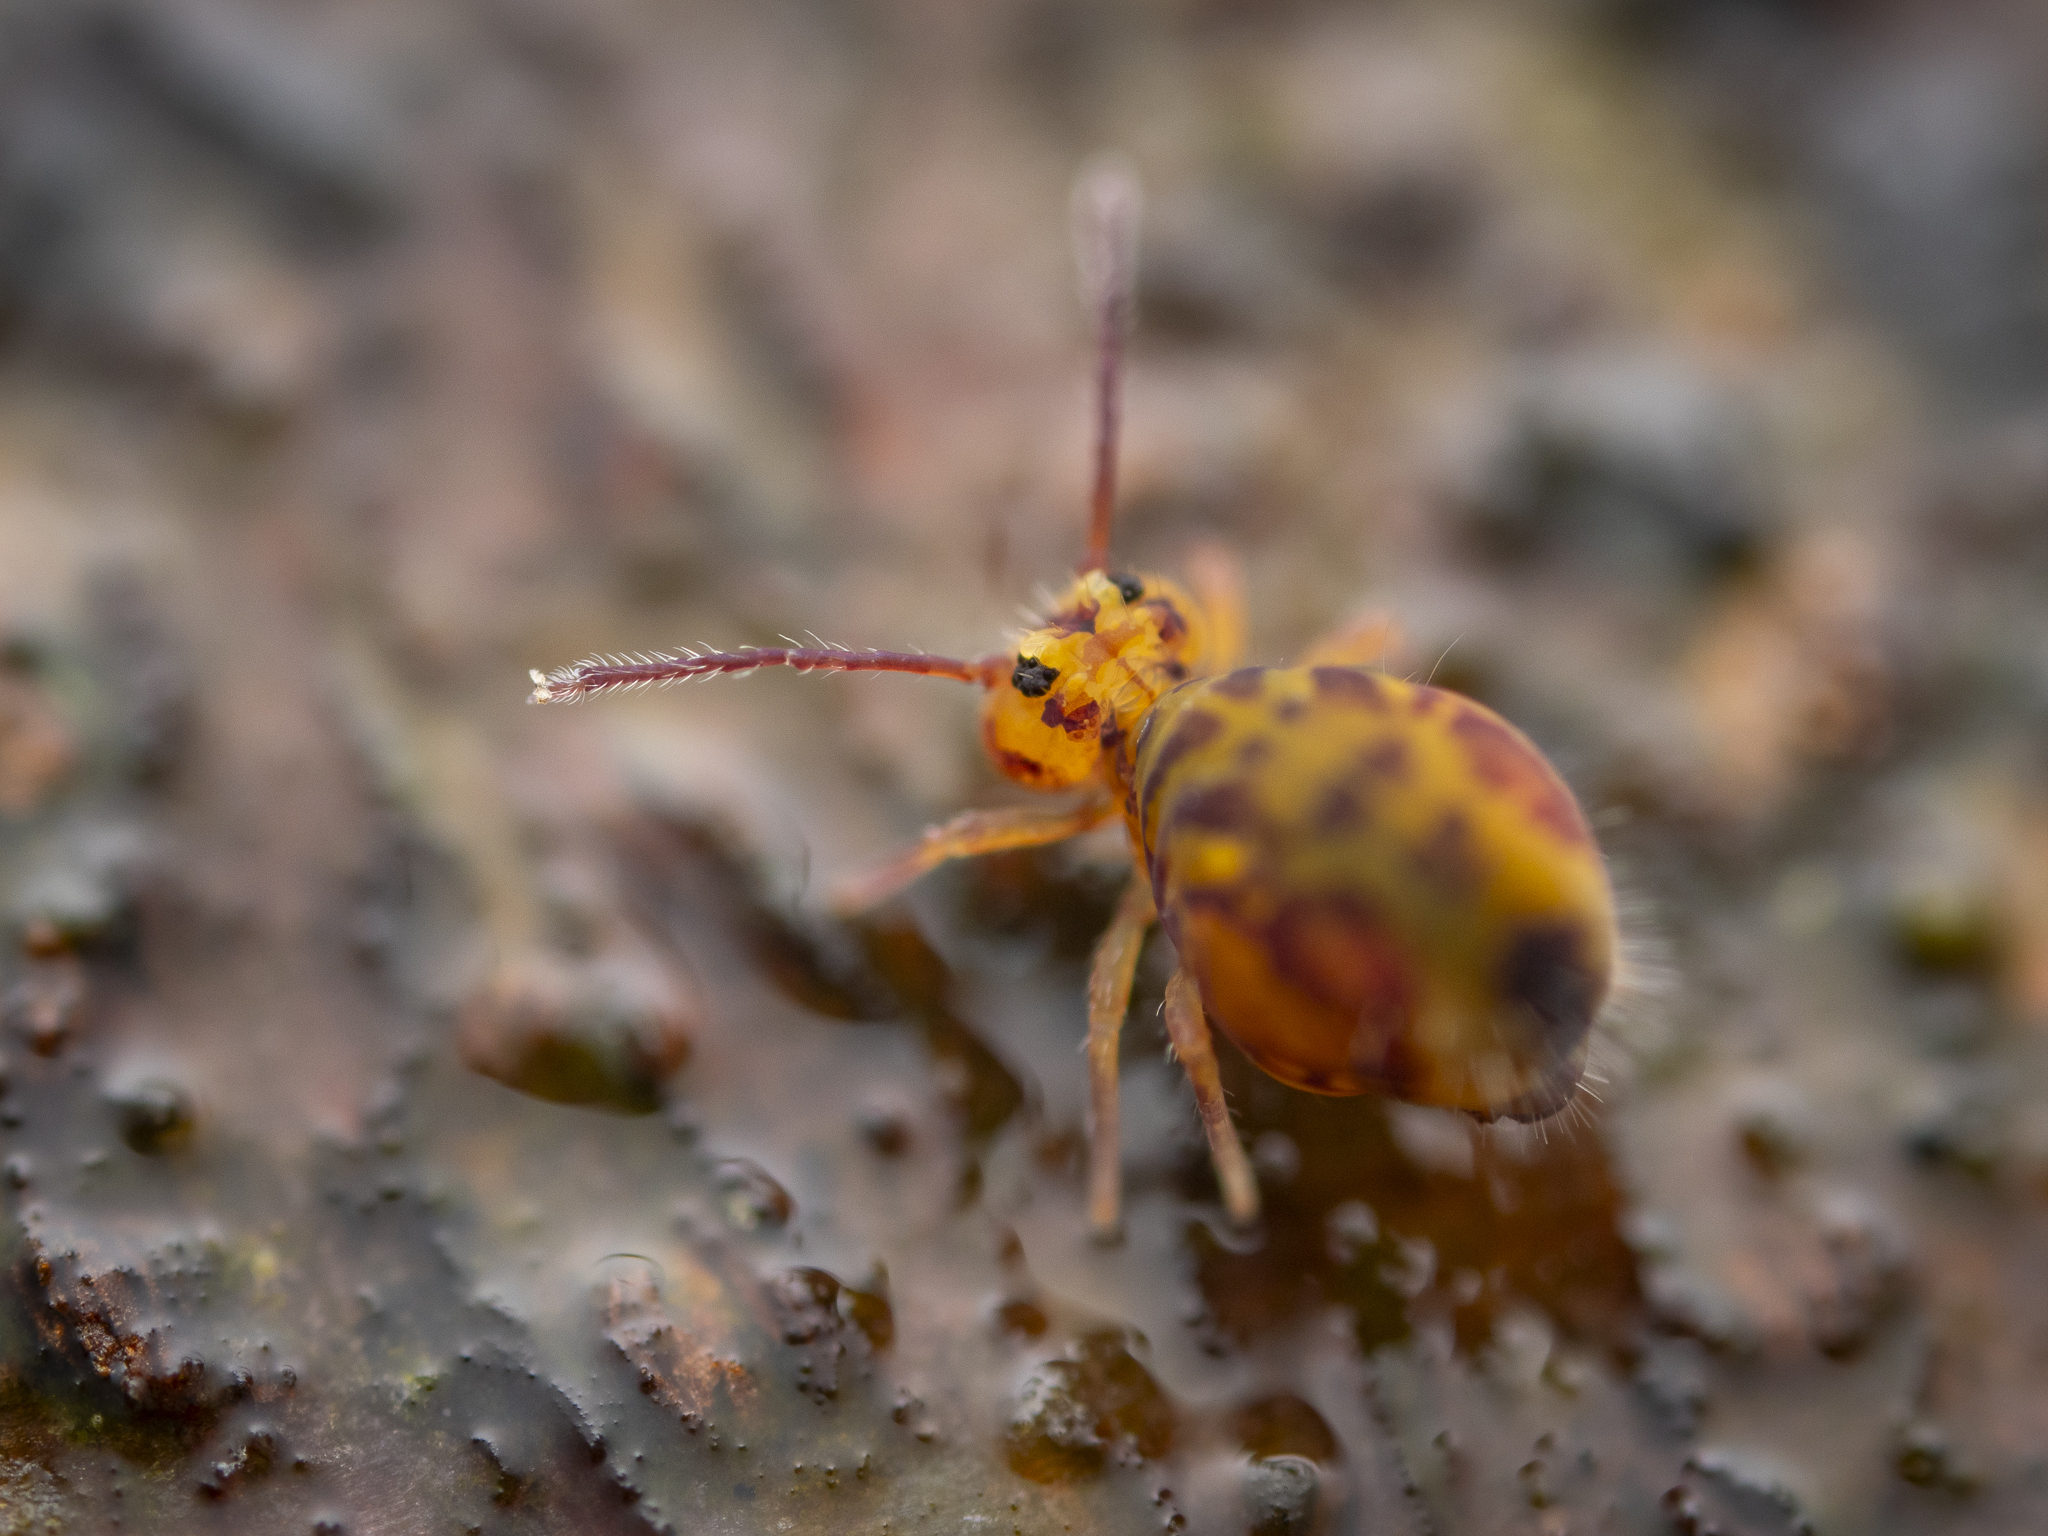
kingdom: Animalia
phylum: Arthropoda
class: Collembola
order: Symphypleona
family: Dicyrtomidae
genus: Dicyrtomina
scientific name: Dicyrtomina ornata
